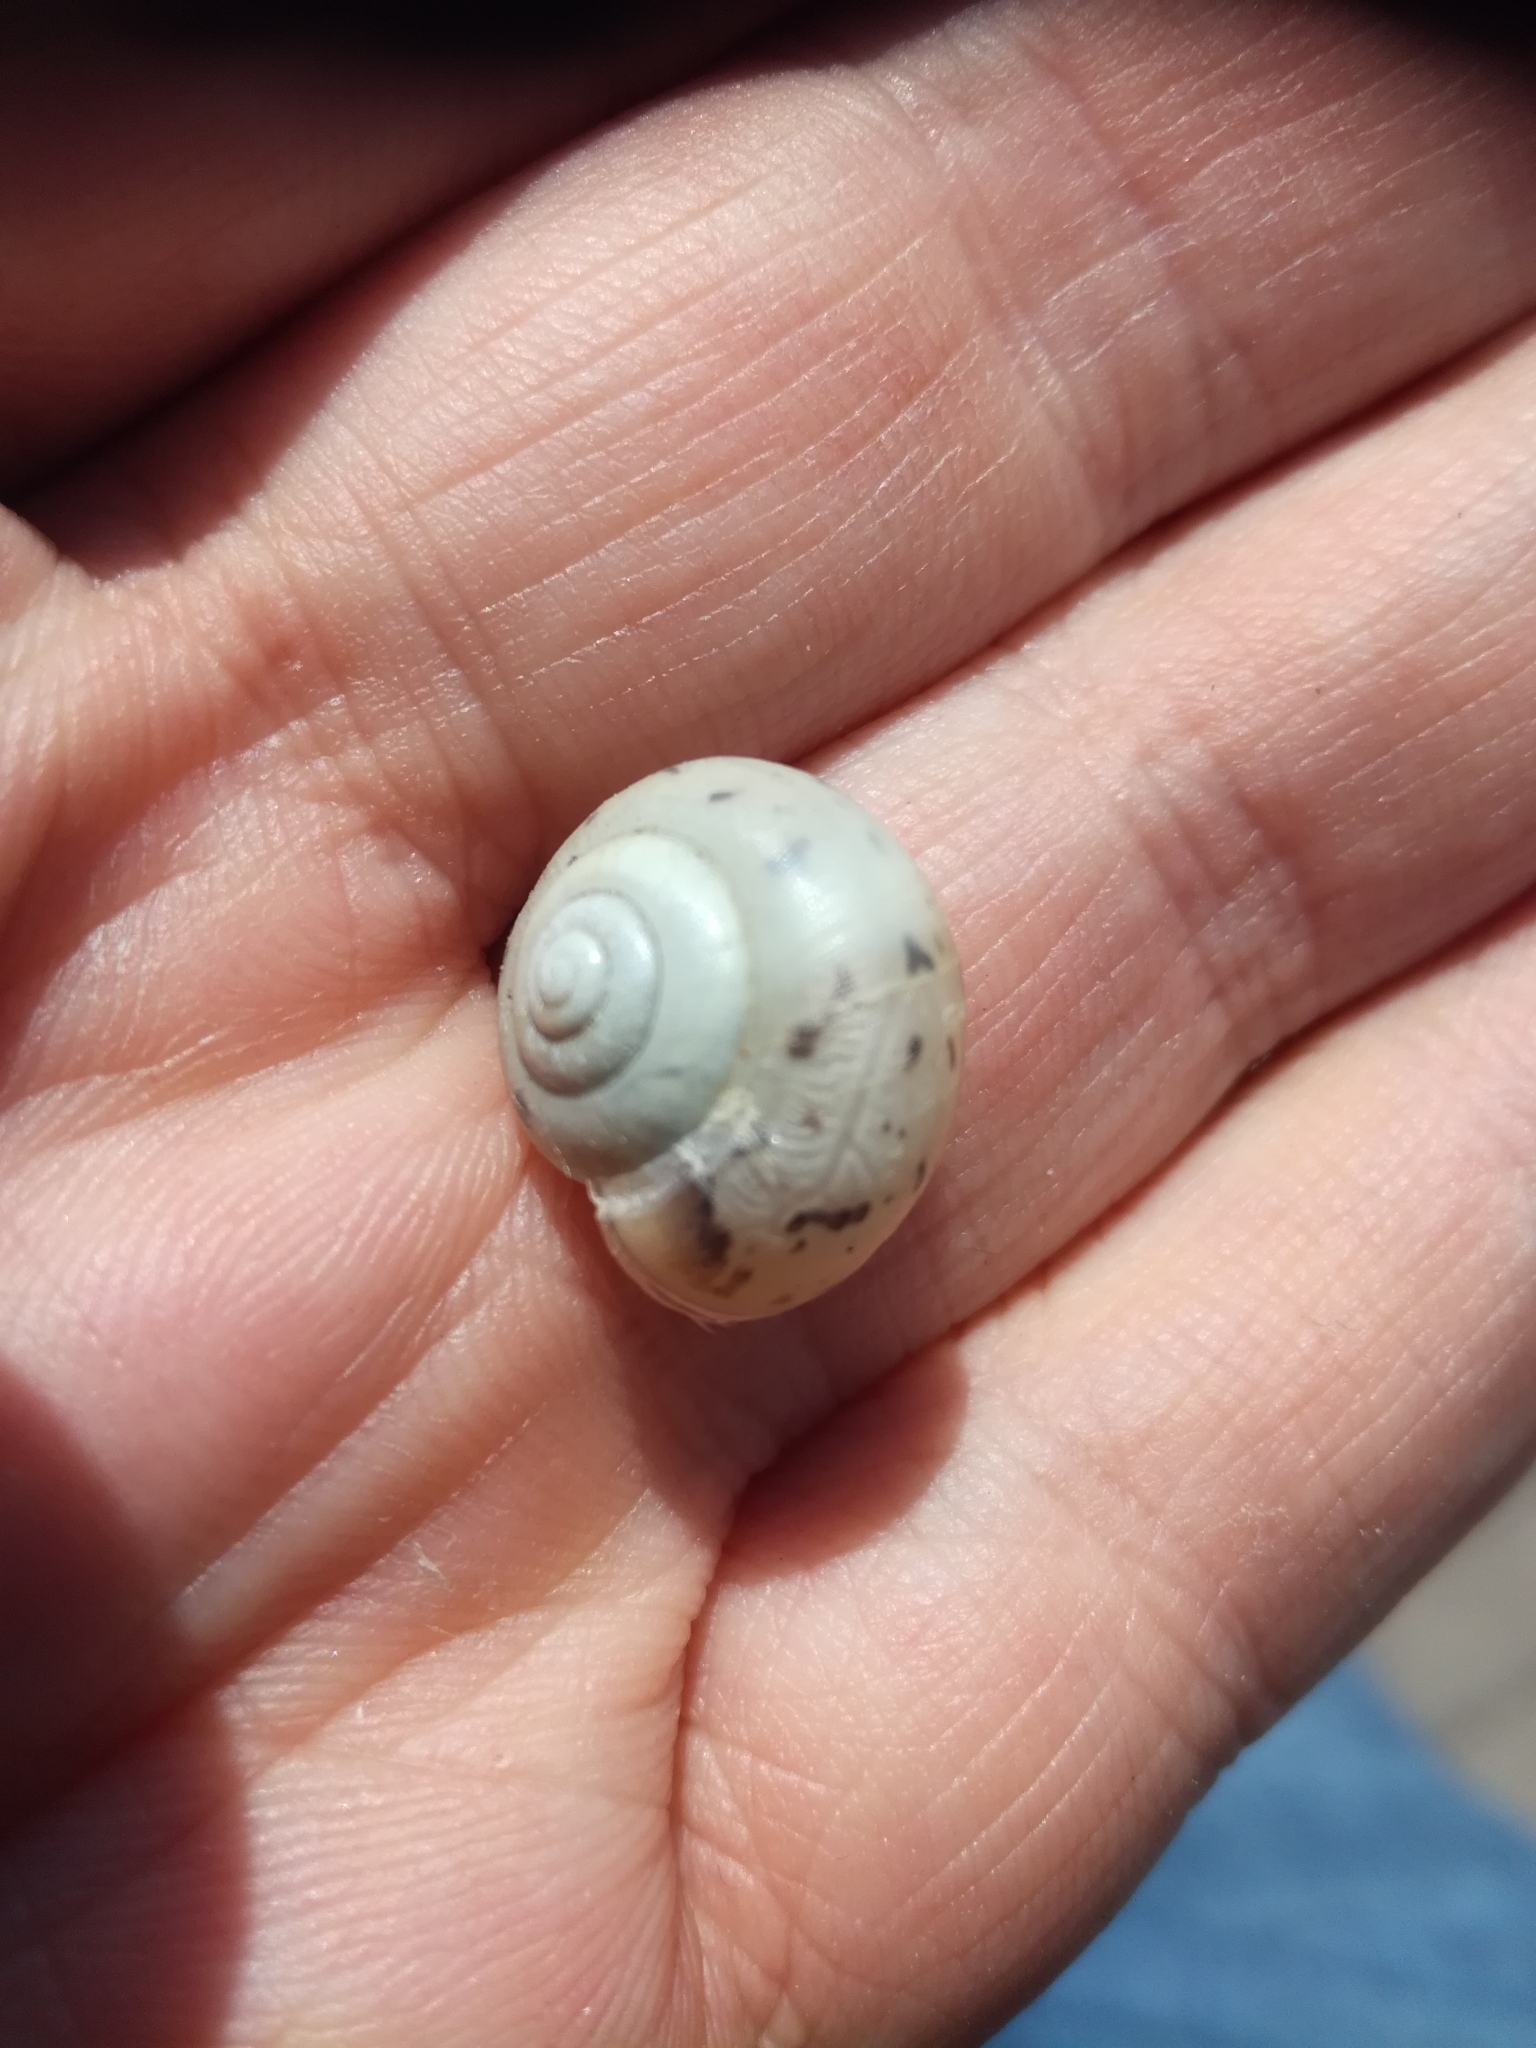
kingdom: Animalia
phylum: Mollusca
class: Gastropoda
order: Stylommatophora
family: Camaenidae
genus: Fruticicola
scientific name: Fruticicola fruticum
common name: Bush snail
